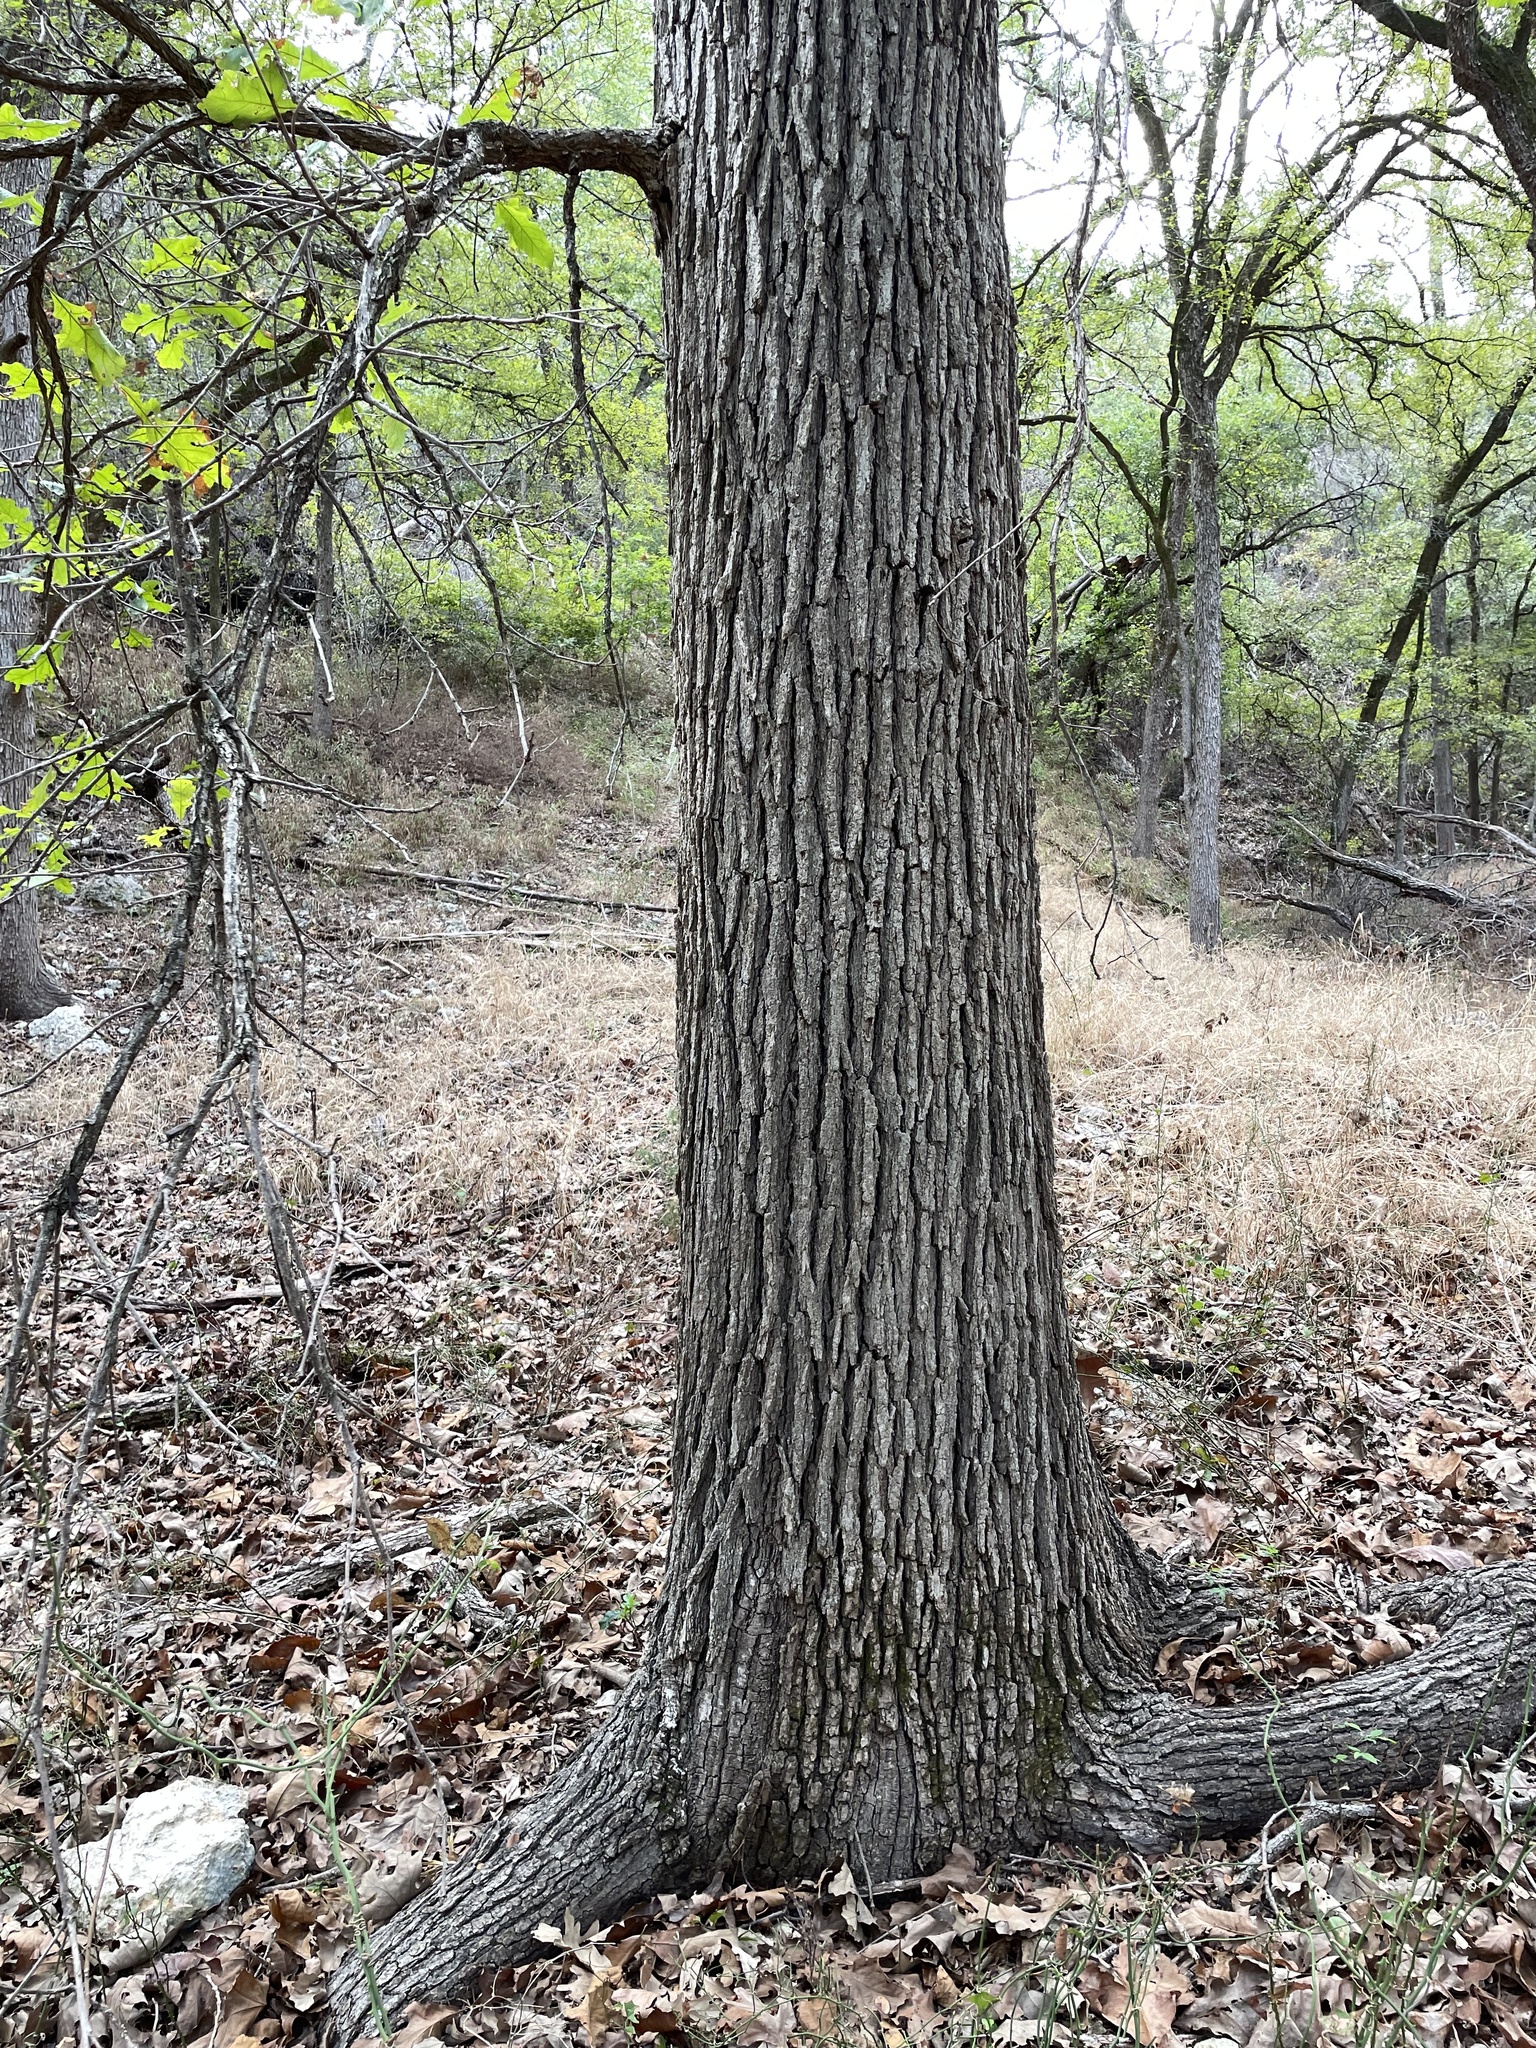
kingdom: Plantae
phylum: Tracheophyta
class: Magnoliopsida
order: Fagales
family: Fagaceae
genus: Quercus
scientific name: Quercus macrocarpa
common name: Bur oak
